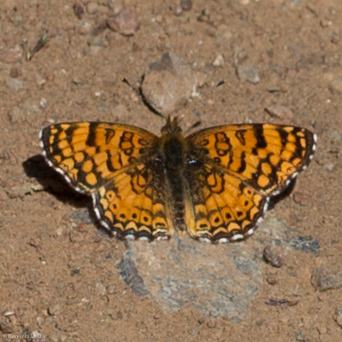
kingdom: Animalia
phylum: Arthropoda
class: Insecta
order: Lepidoptera
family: Nymphalidae
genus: Eresia
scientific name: Eresia aveyrona
